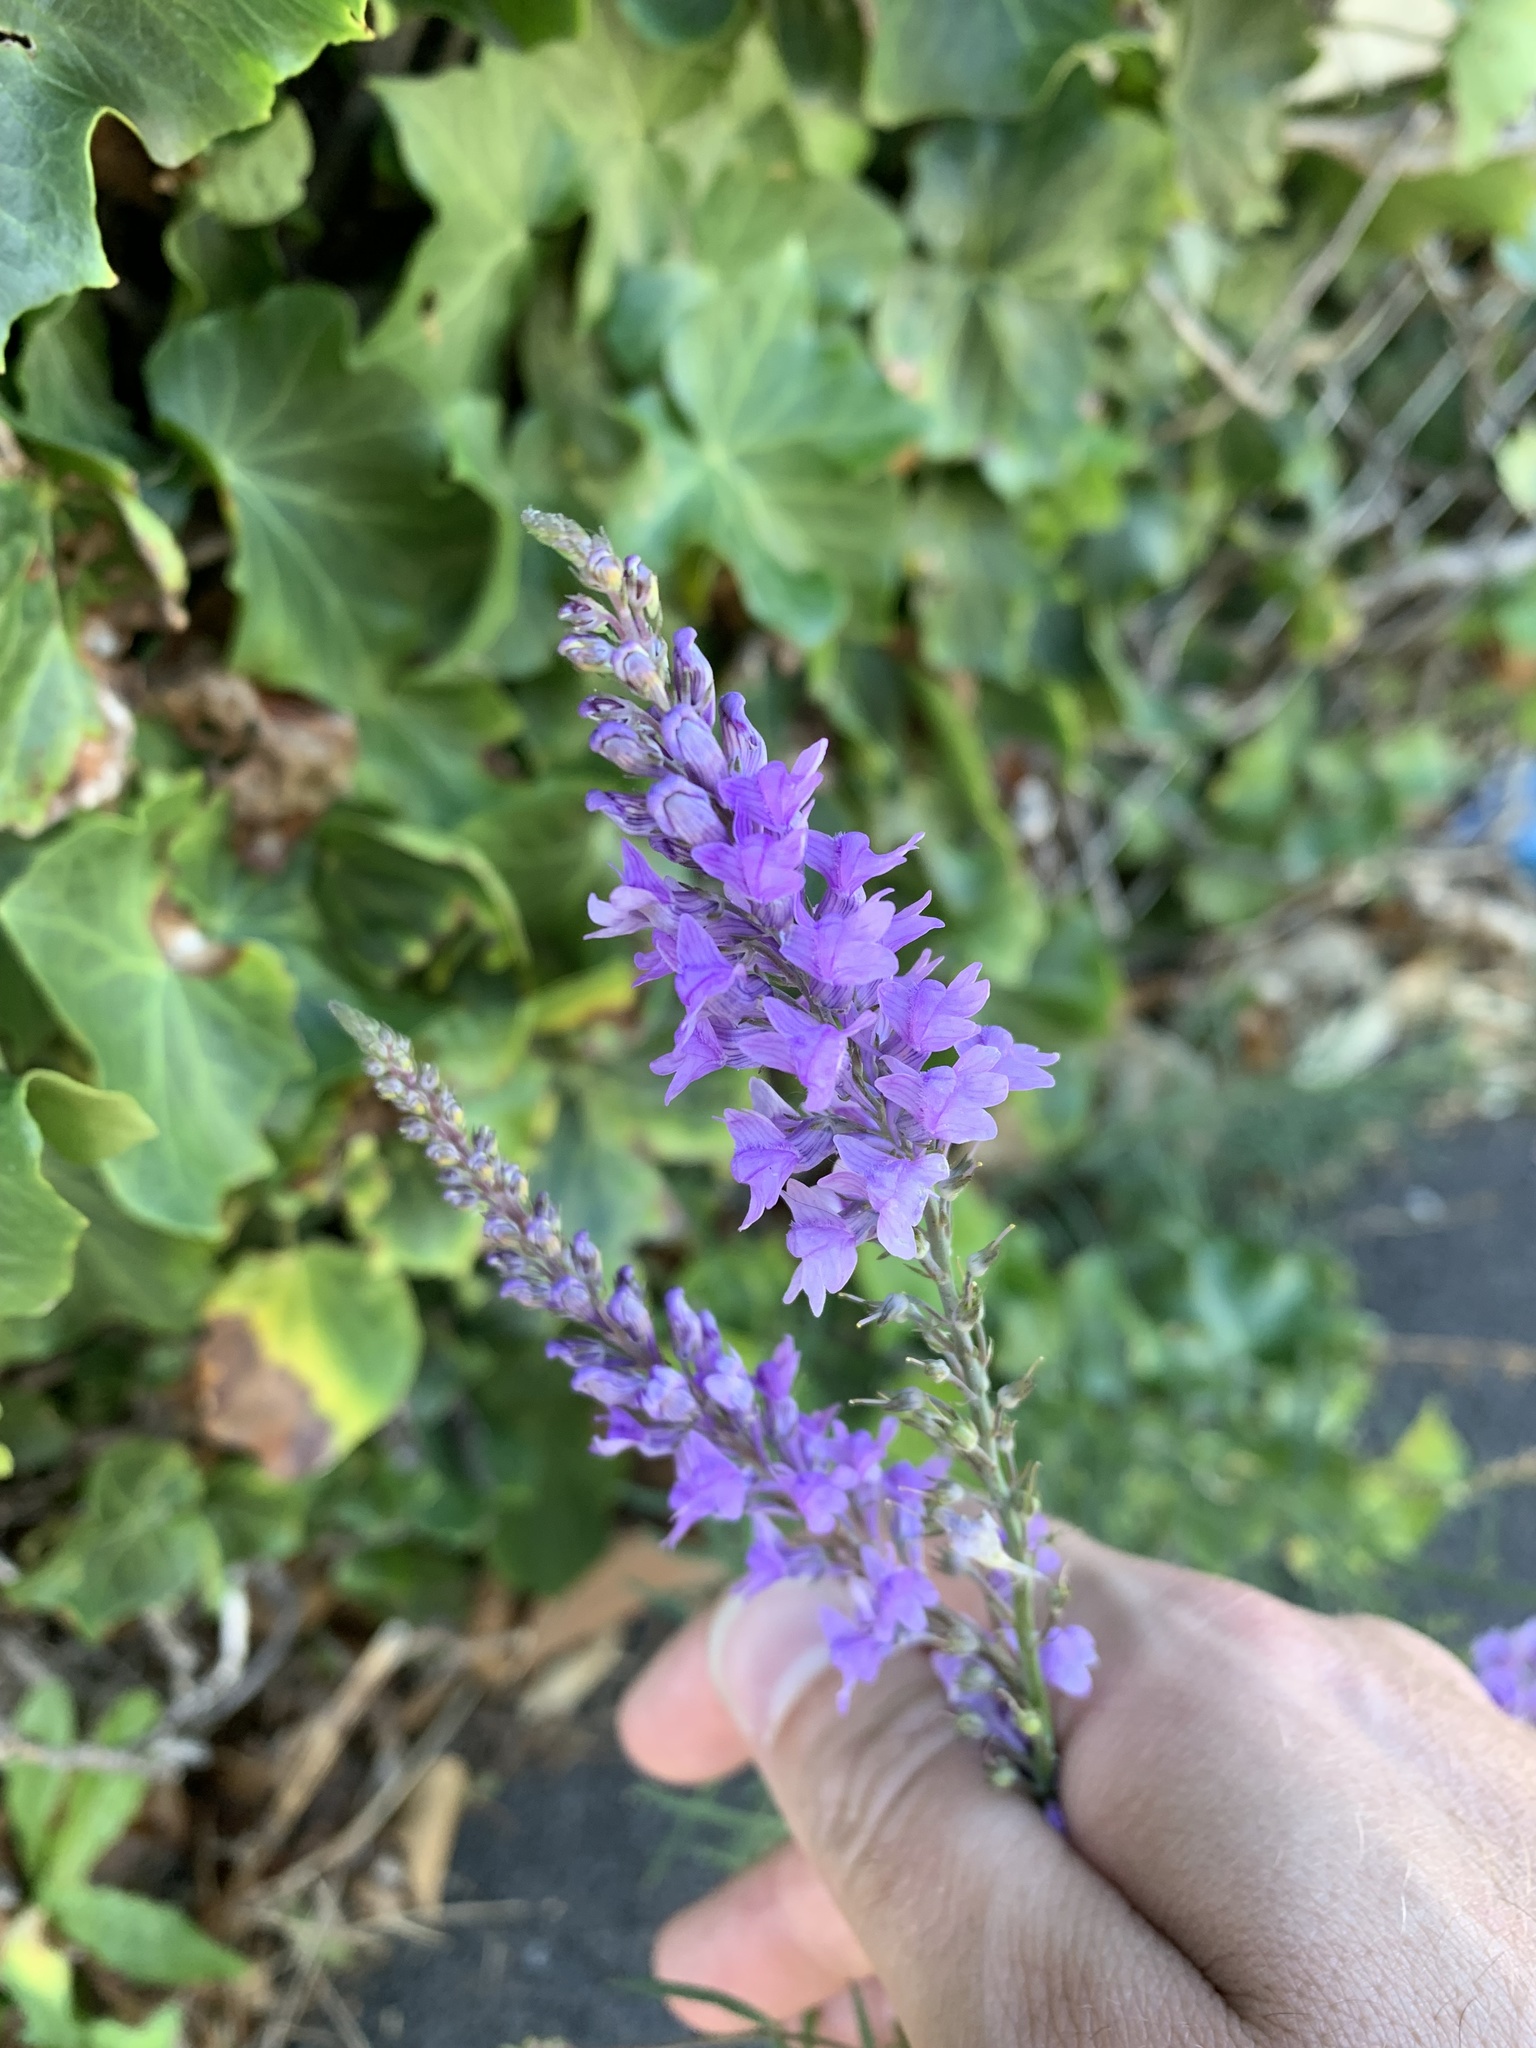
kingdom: Plantae
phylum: Tracheophyta
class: Magnoliopsida
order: Lamiales
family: Plantaginaceae
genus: Linaria
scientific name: Linaria purpurea
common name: Purple toadflax
